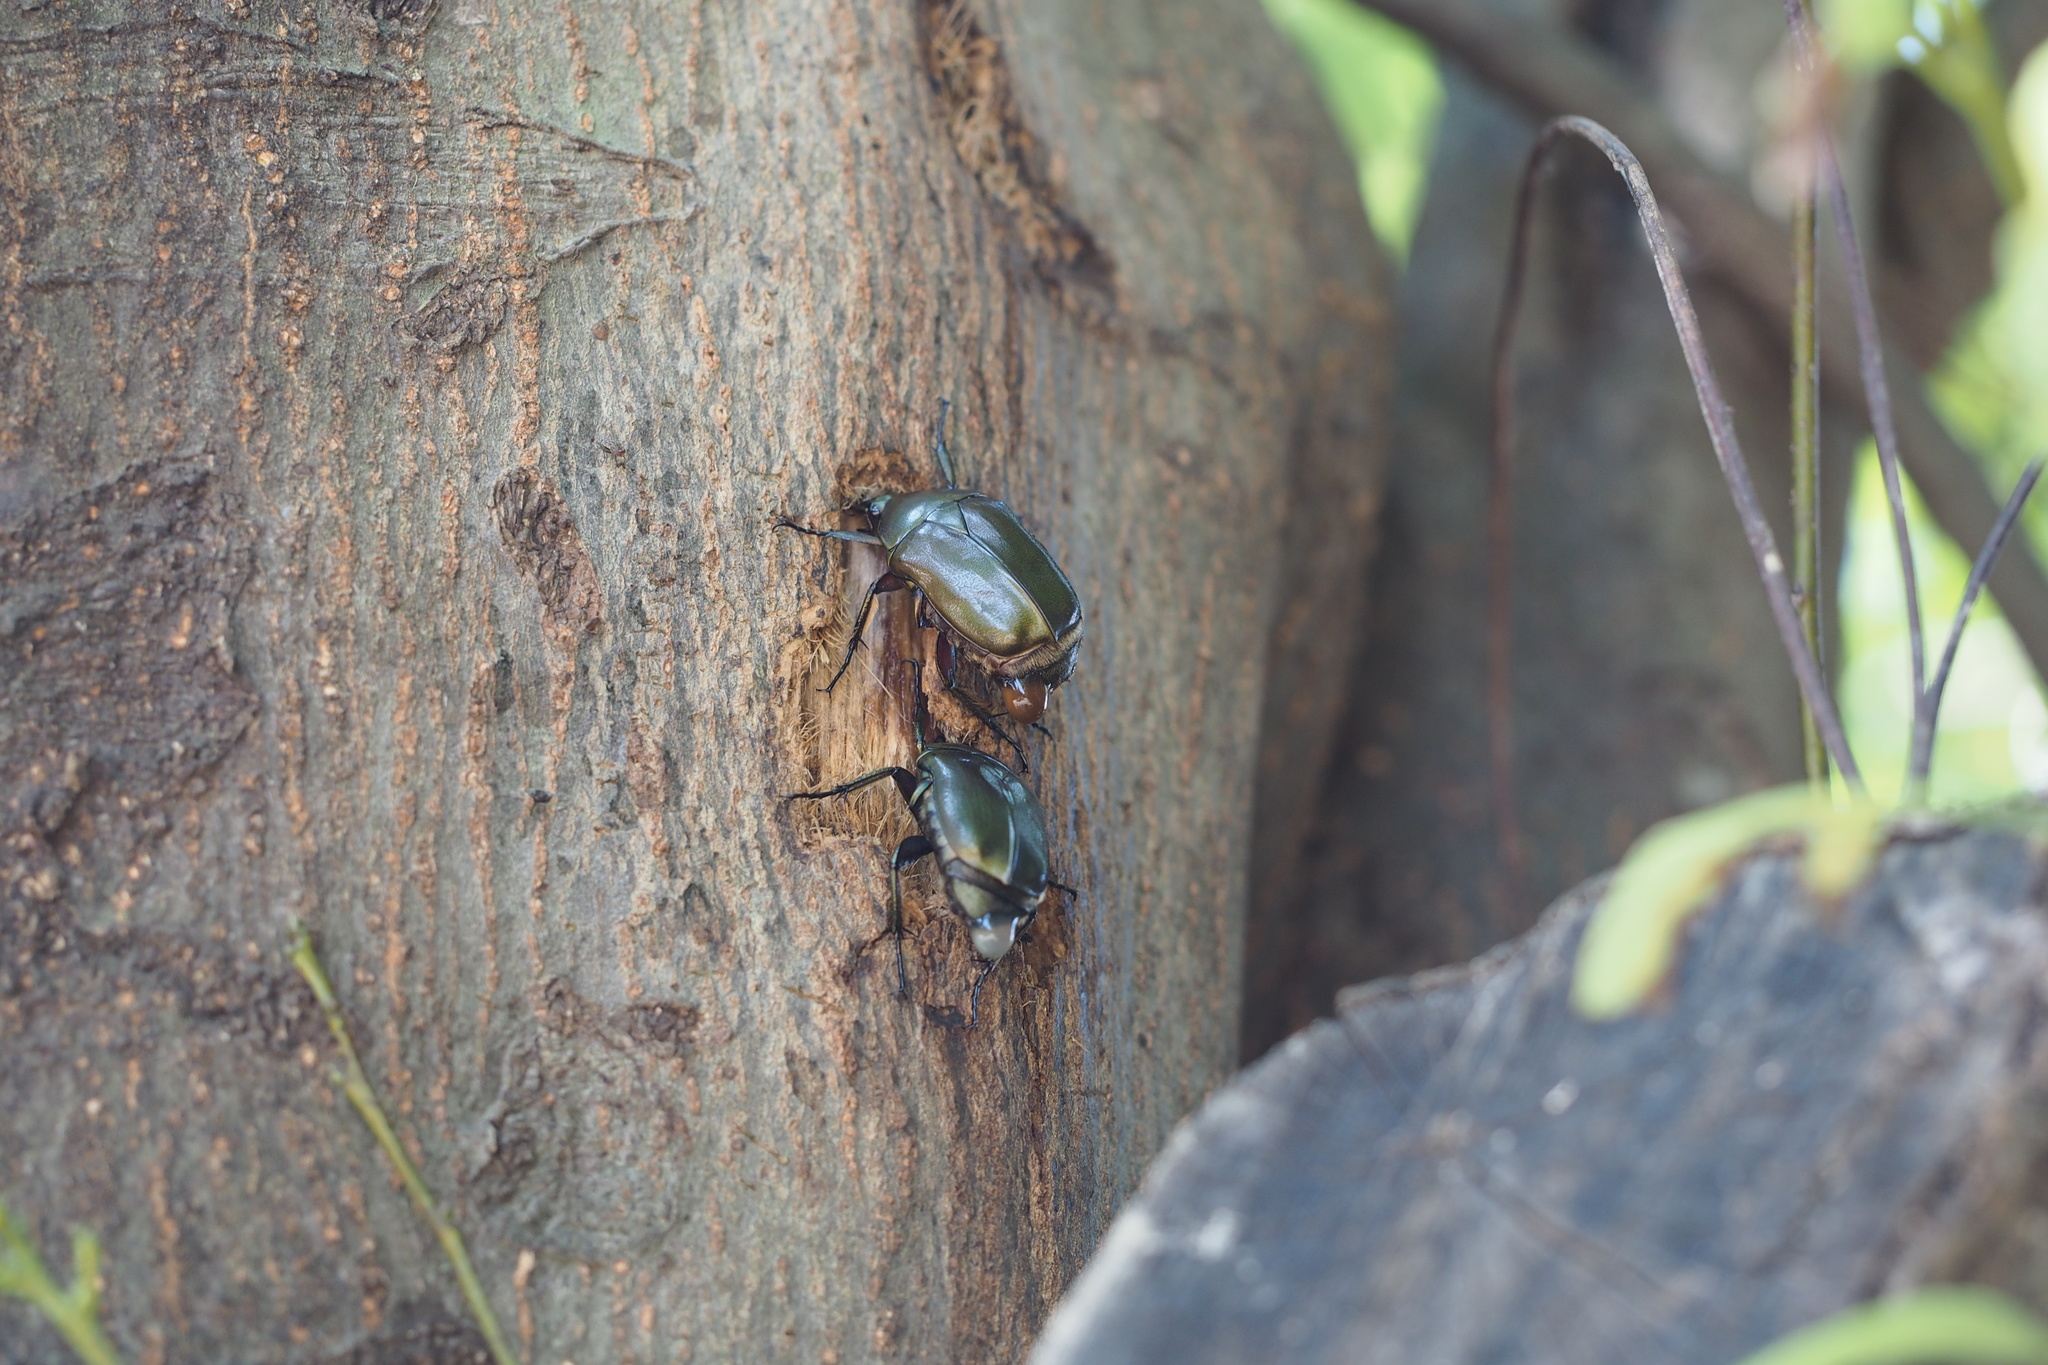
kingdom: Animalia
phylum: Arthropoda
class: Insecta
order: Coleoptera
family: Scarabaeidae
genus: Pseudotorynorrhina
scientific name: Pseudotorynorrhina japonica
